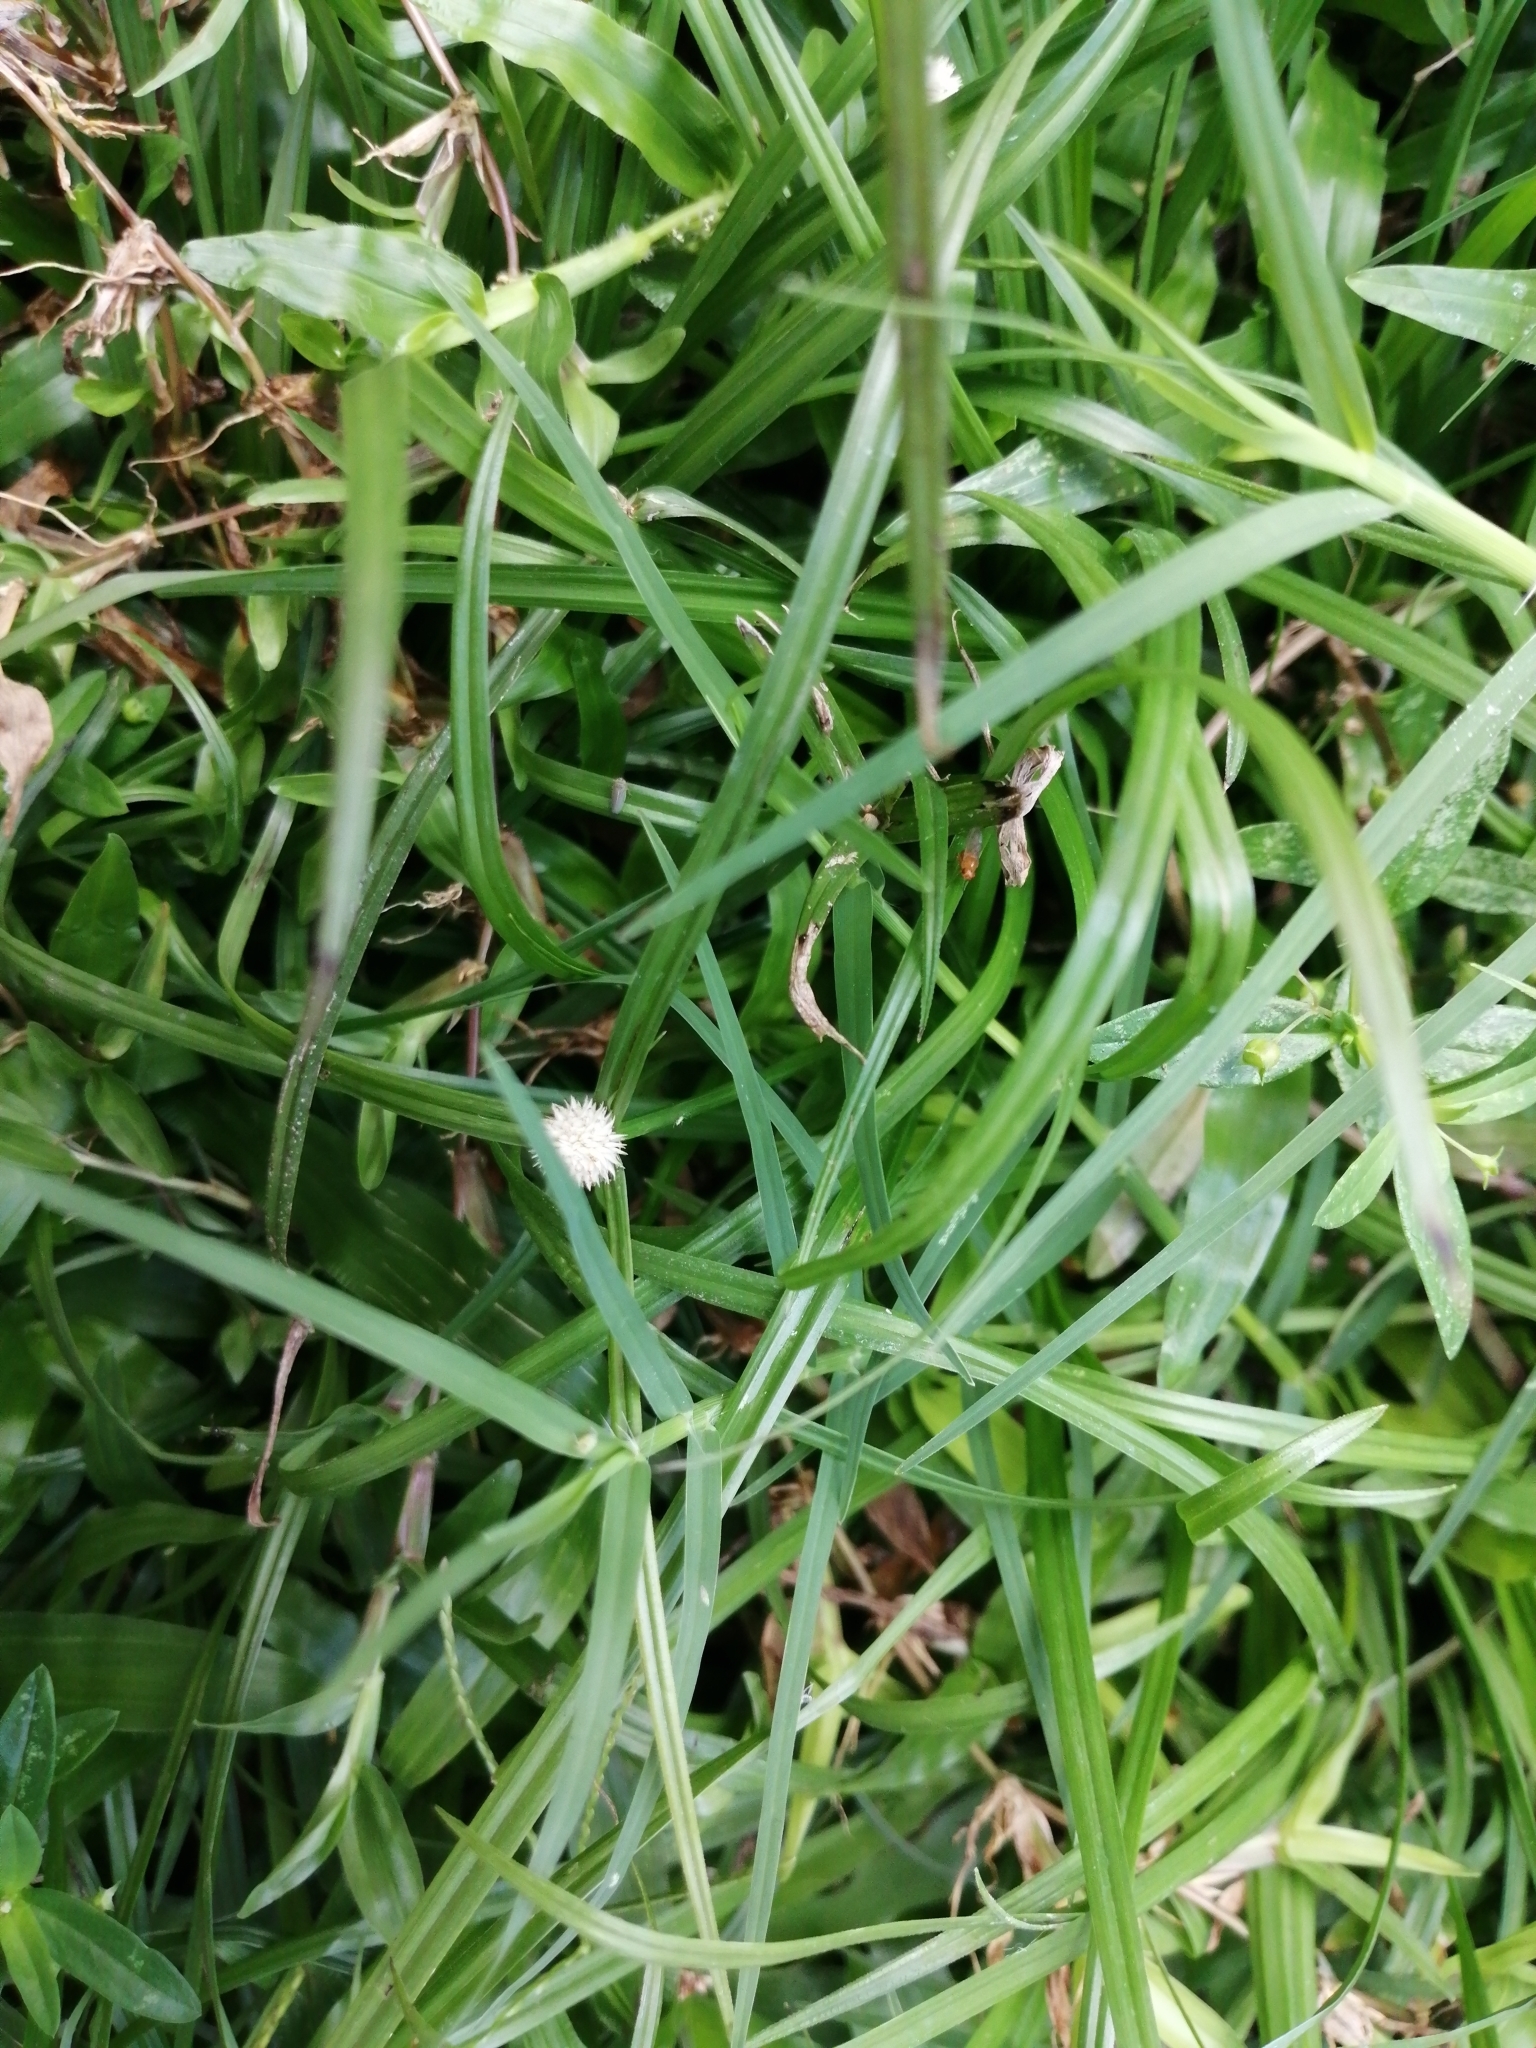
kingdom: Plantae
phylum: Tracheophyta
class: Liliopsida
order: Poales
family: Cyperaceae
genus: Cyperus
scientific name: Cyperus mindorensis
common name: Flatsedge
